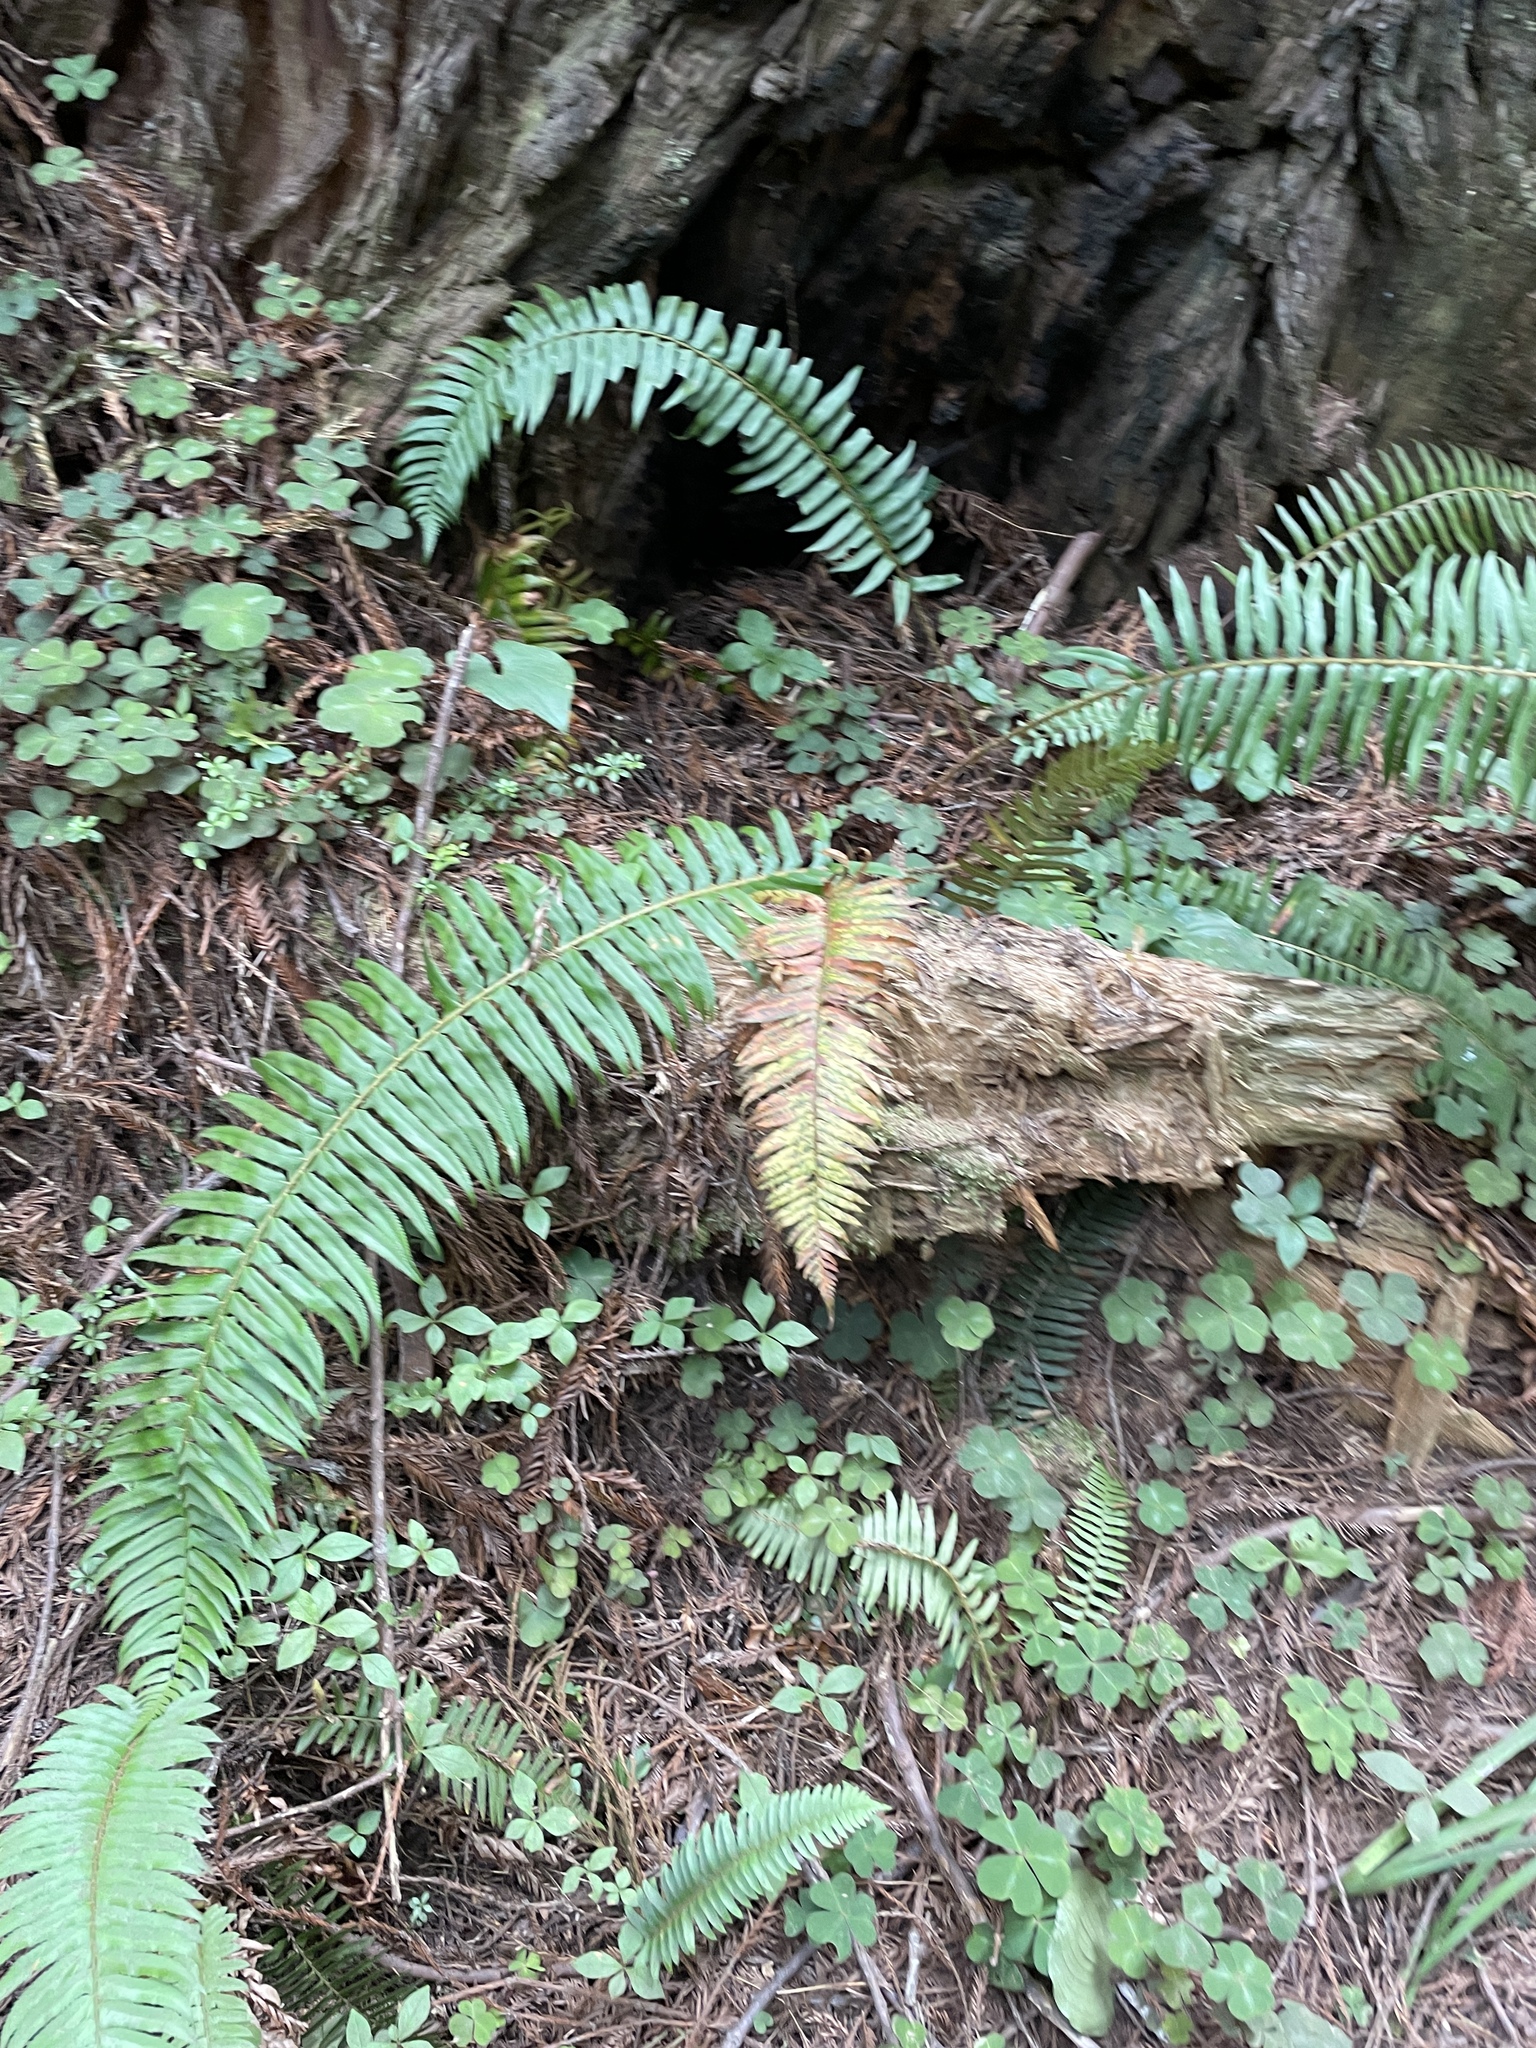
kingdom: Plantae
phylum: Tracheophyta
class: Polypodiopsida
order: Polypodiales
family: Dryopteridaceae
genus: Polystichum
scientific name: Polystichum munitum
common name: Western sword-fern
